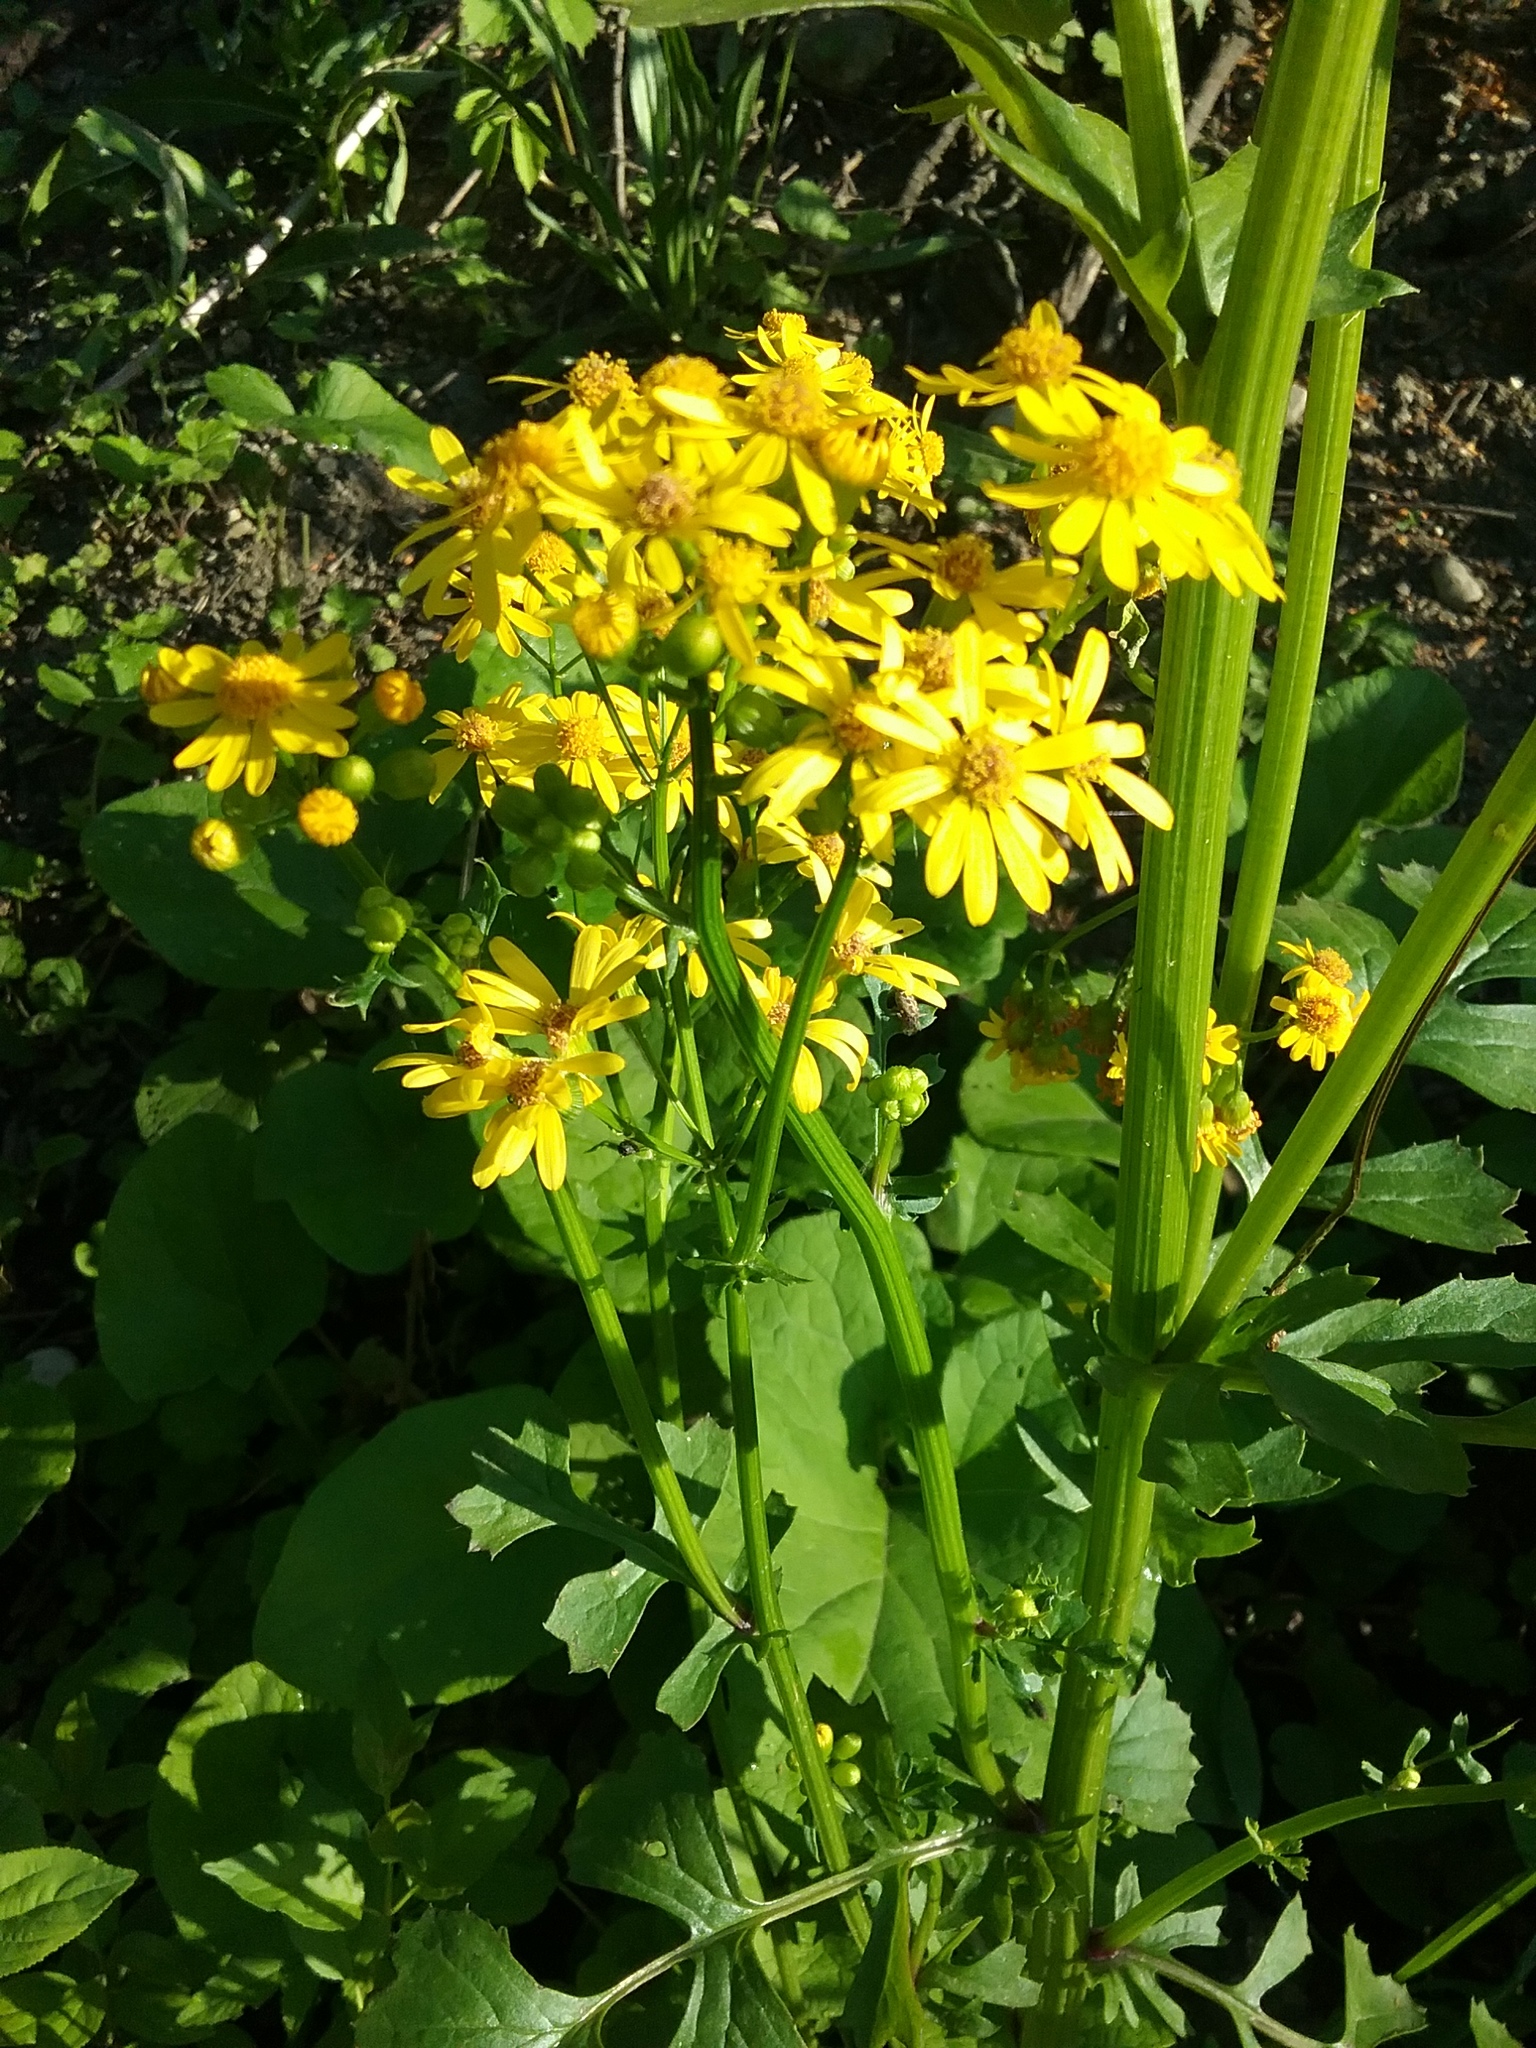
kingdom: Plantae
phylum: Tracheophyta
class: Magnoliopsida
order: Asterales
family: Asteraceae
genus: Packera
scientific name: Packera glabella
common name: Butterweed
